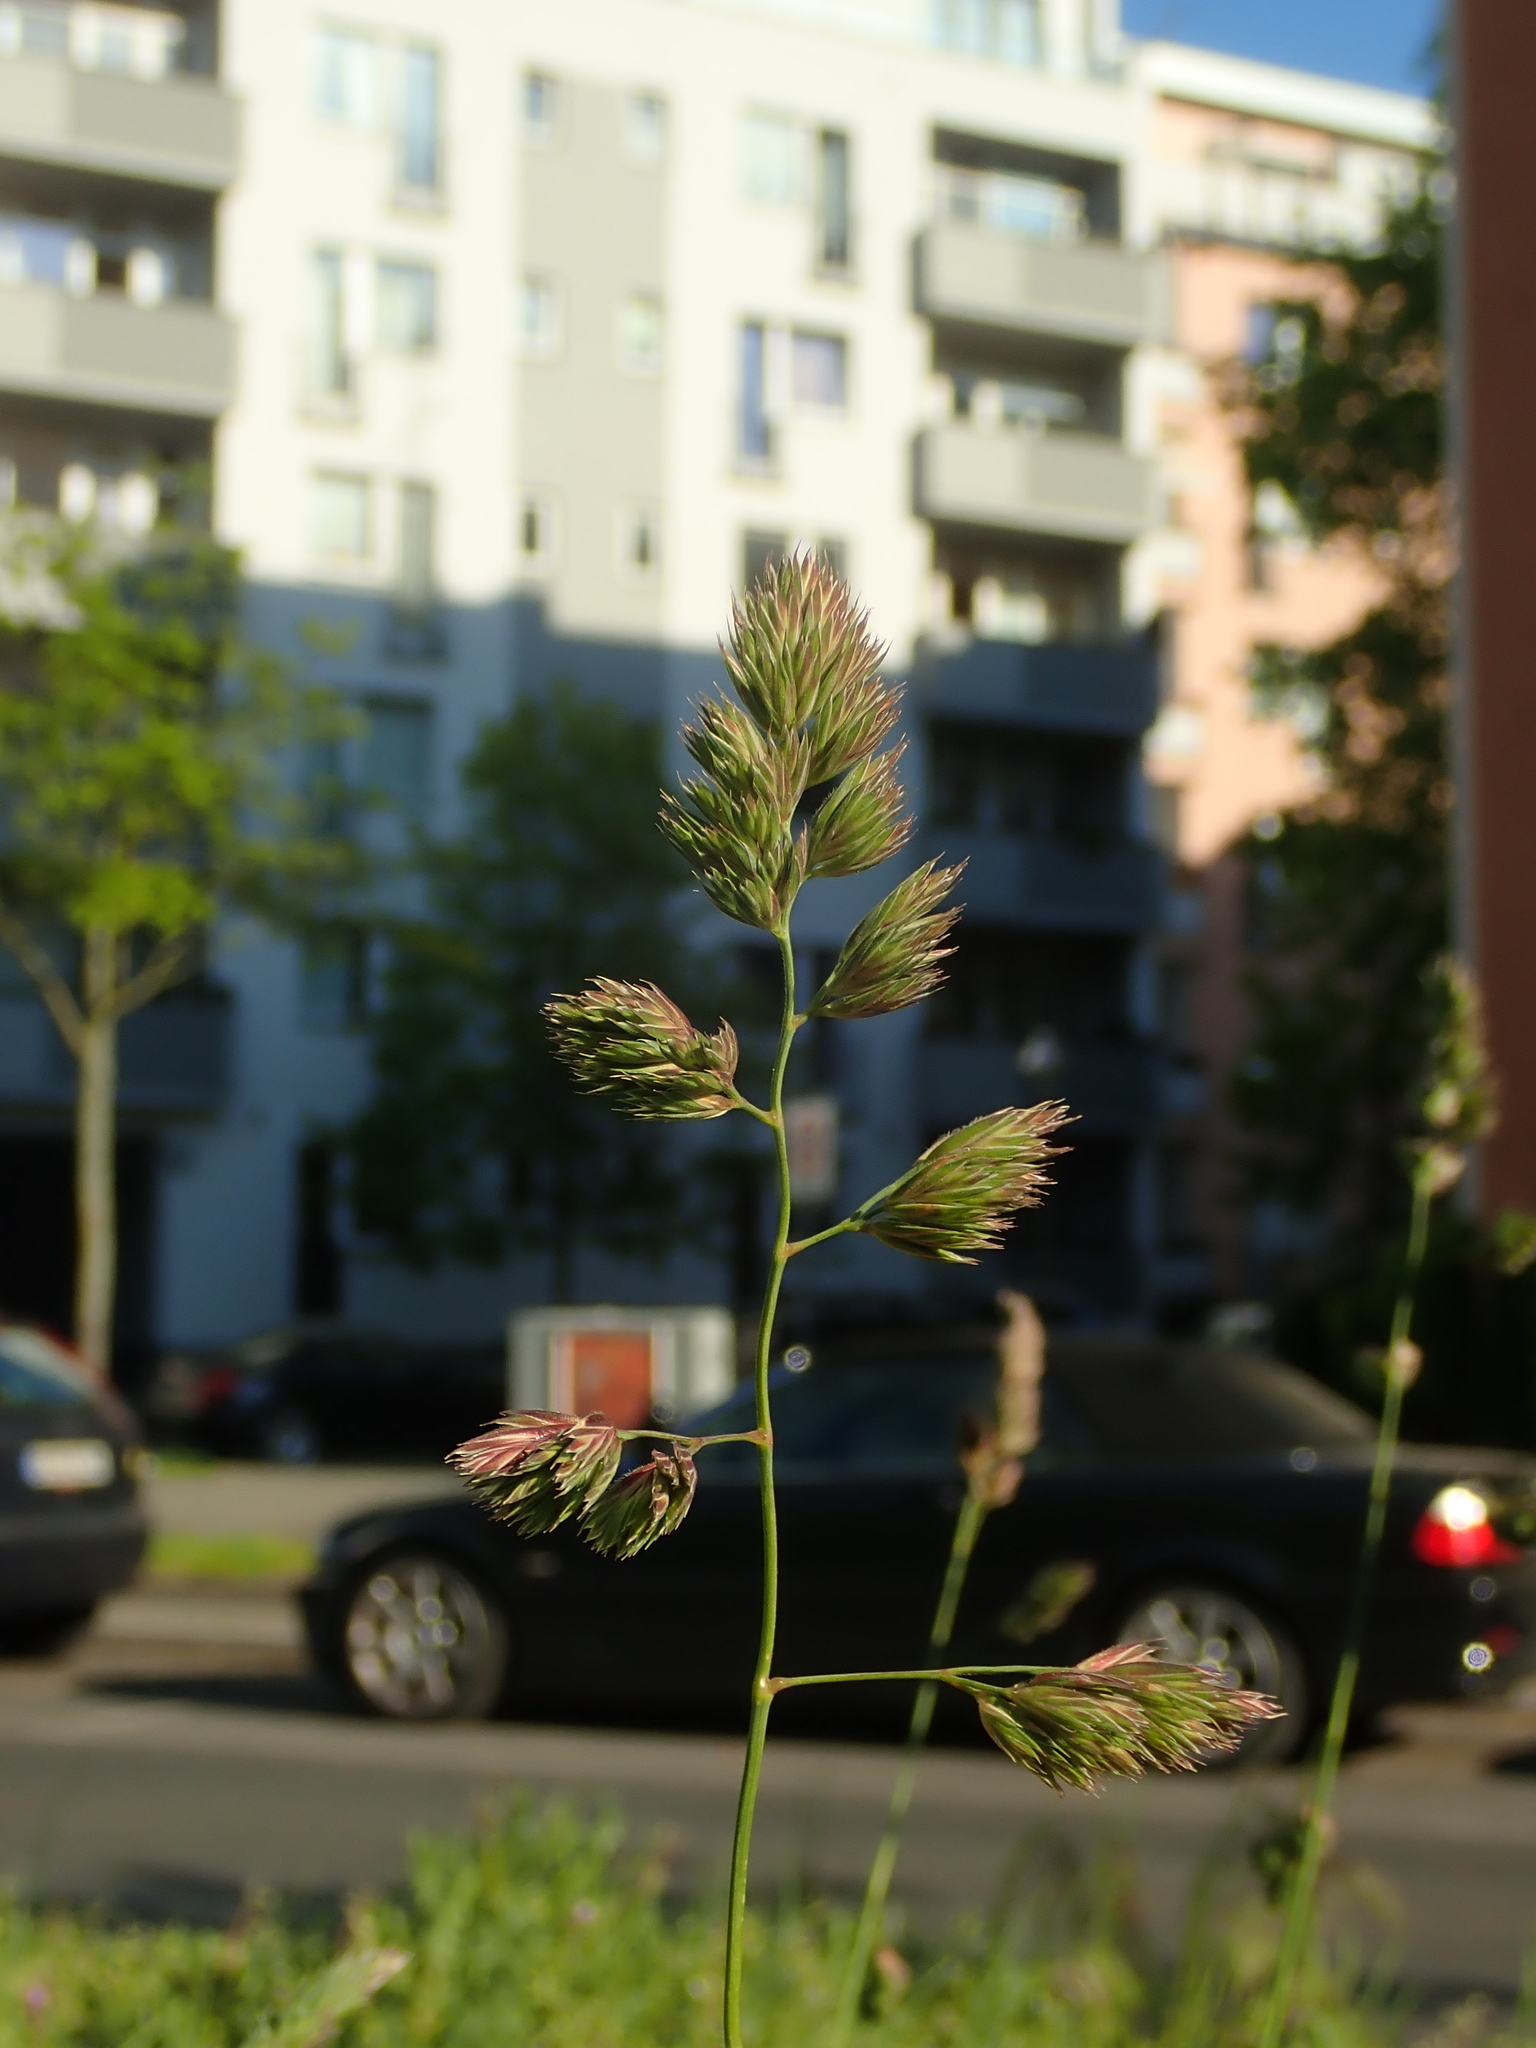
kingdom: Plantae
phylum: Tracheophyta
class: Liliopsida
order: Poales
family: Poaceae
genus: Dactylis
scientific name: Dactylis glomerata
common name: Orchardgrass
